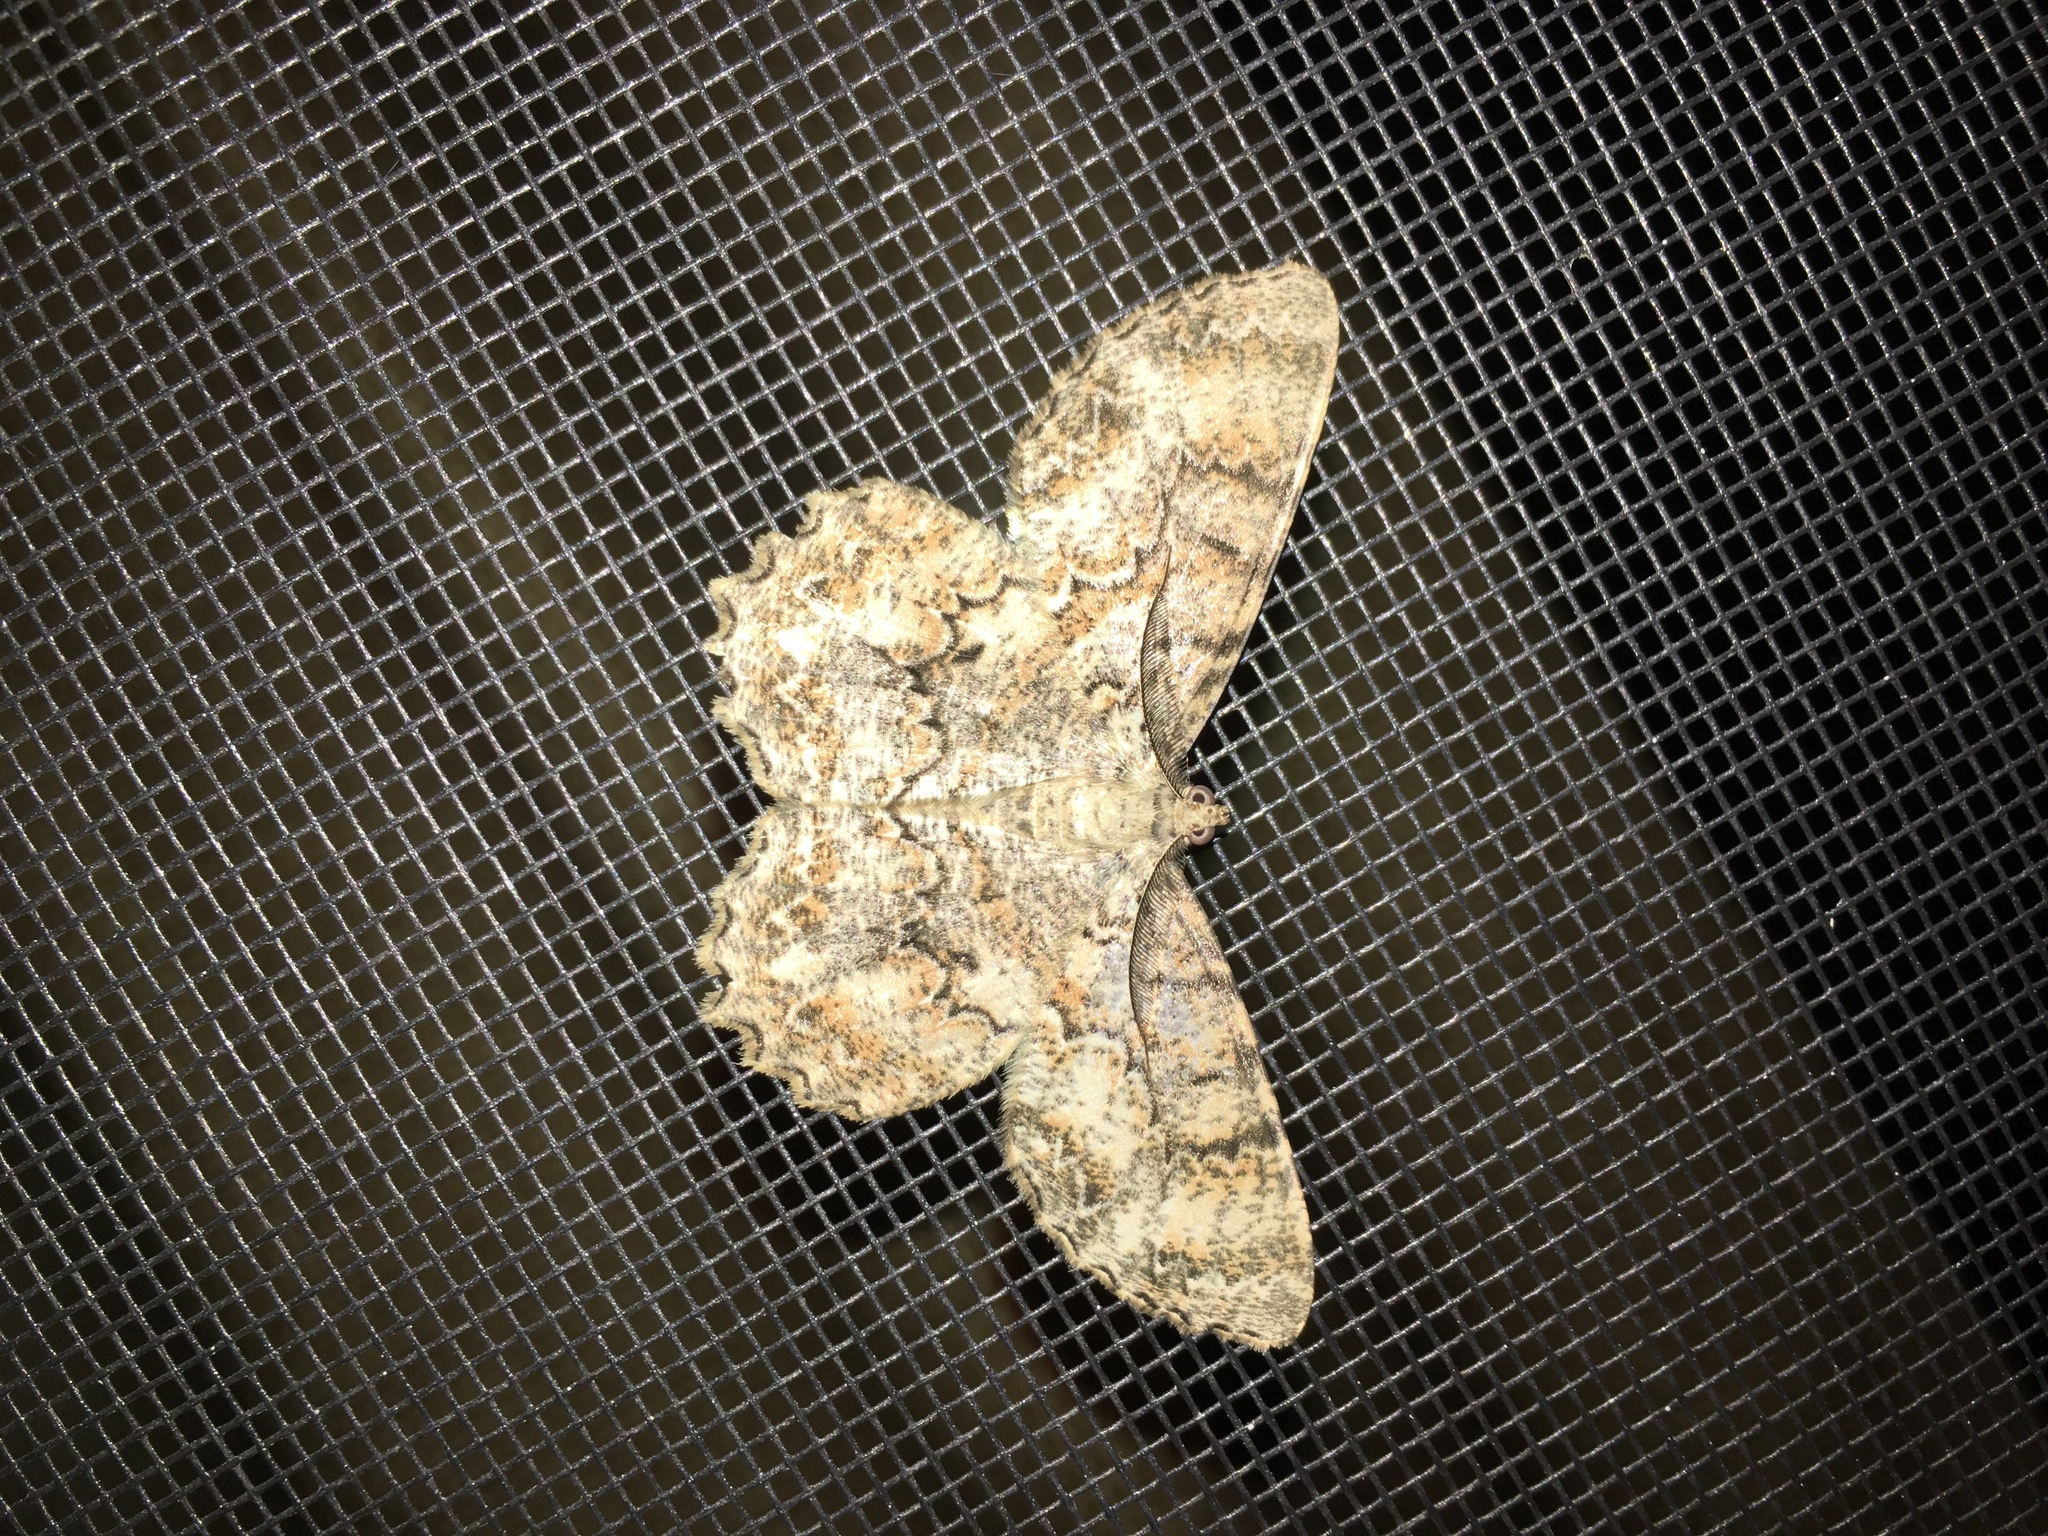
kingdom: Animalia
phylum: Arthropoda
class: Insecta
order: Lepidoptera
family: Geometridae
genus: Epimecis
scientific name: Epimecis hortaria
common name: Tulip-tree beauty
